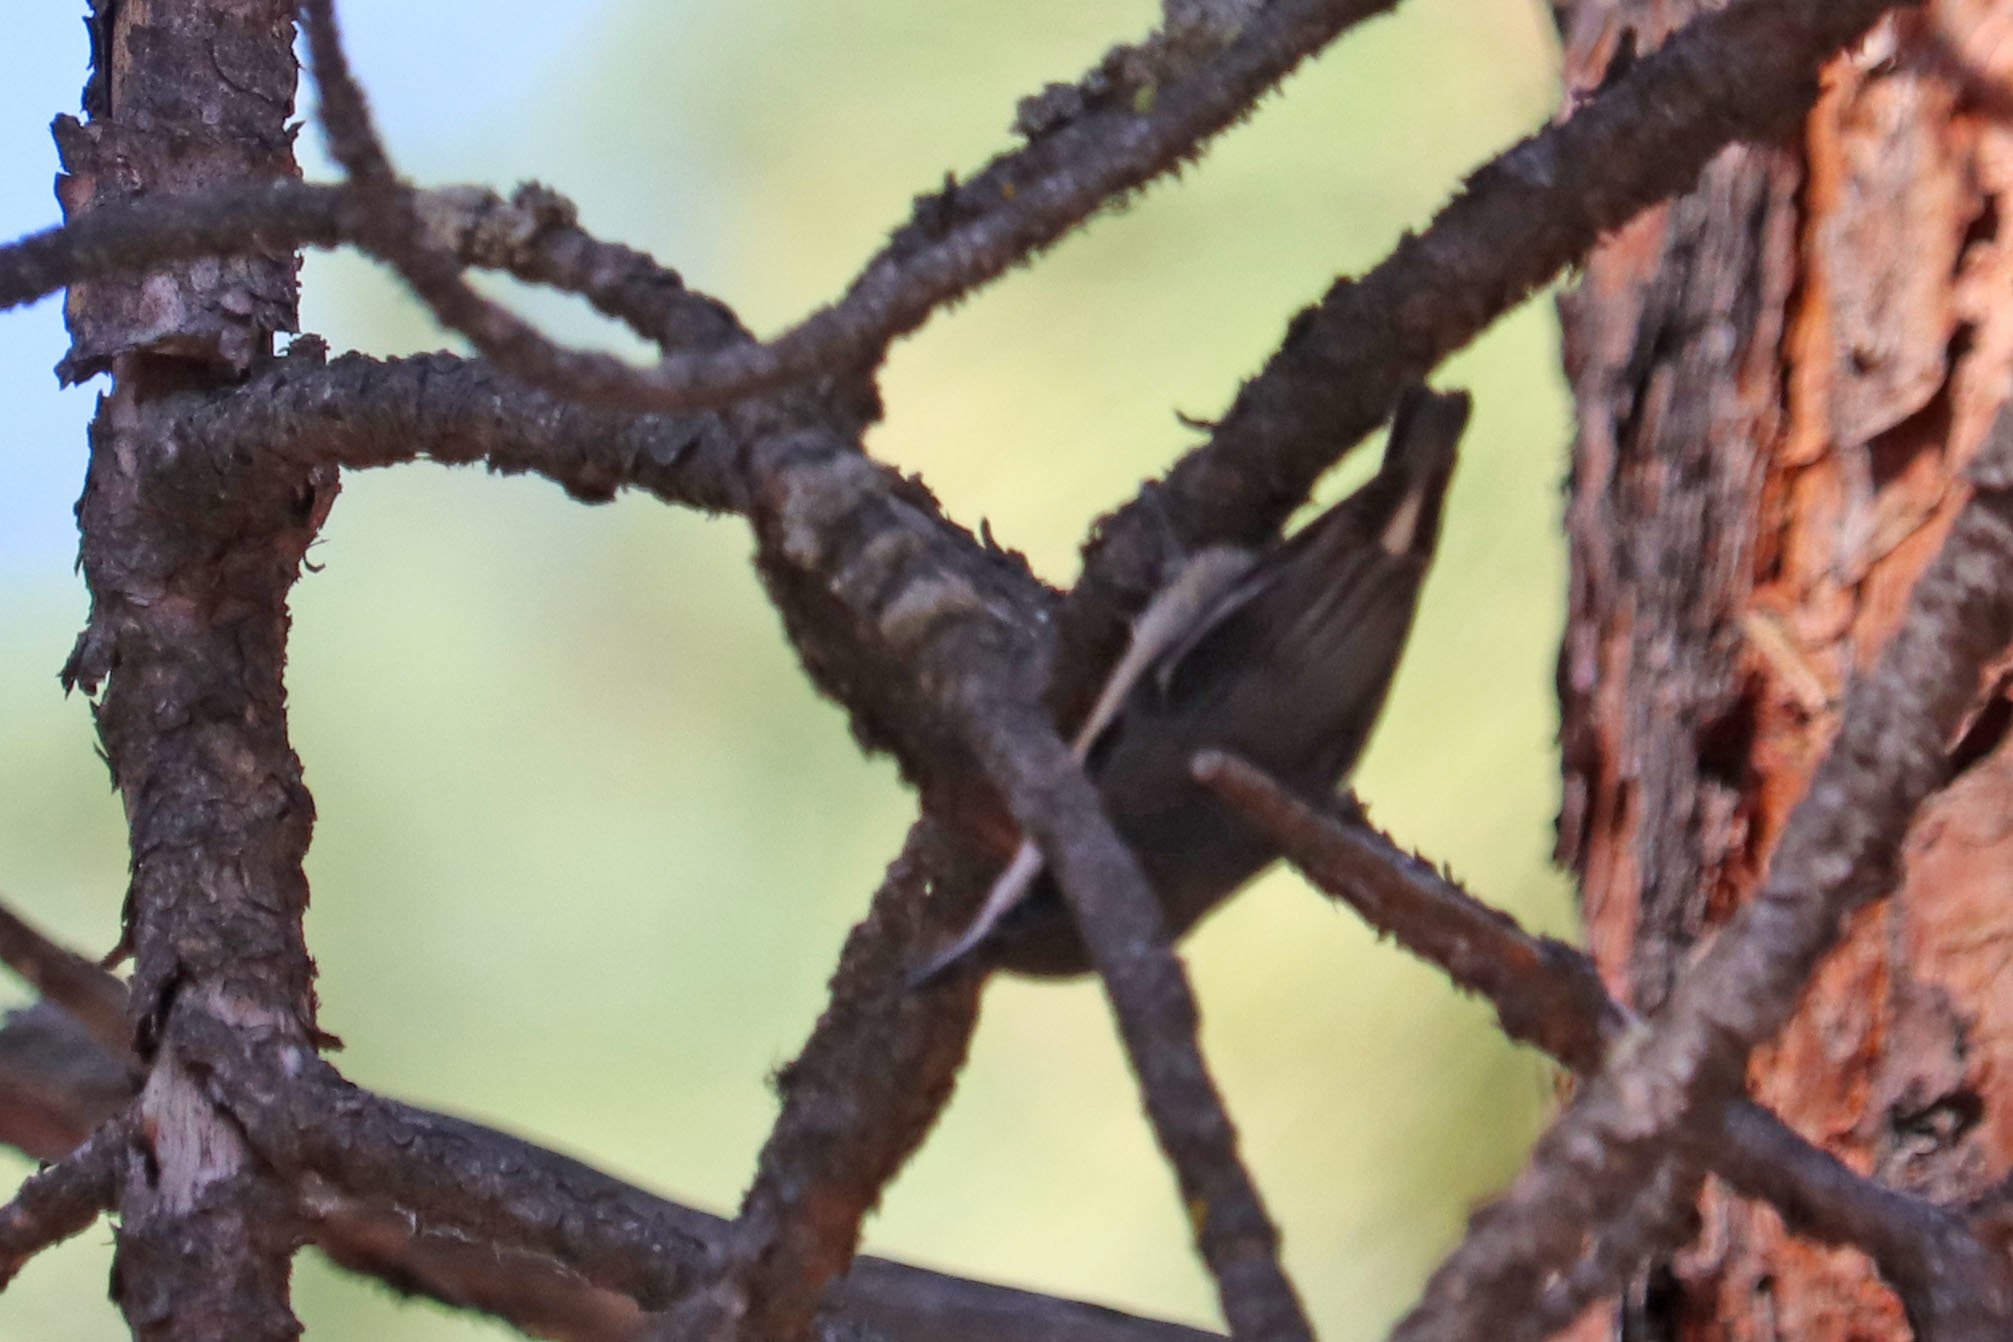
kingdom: Animalia
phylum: Chordata
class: Aves
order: Passeriformes
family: Sittidae
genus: Sitta
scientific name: Sitta pygmaea
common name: Pygmy nuthatch
